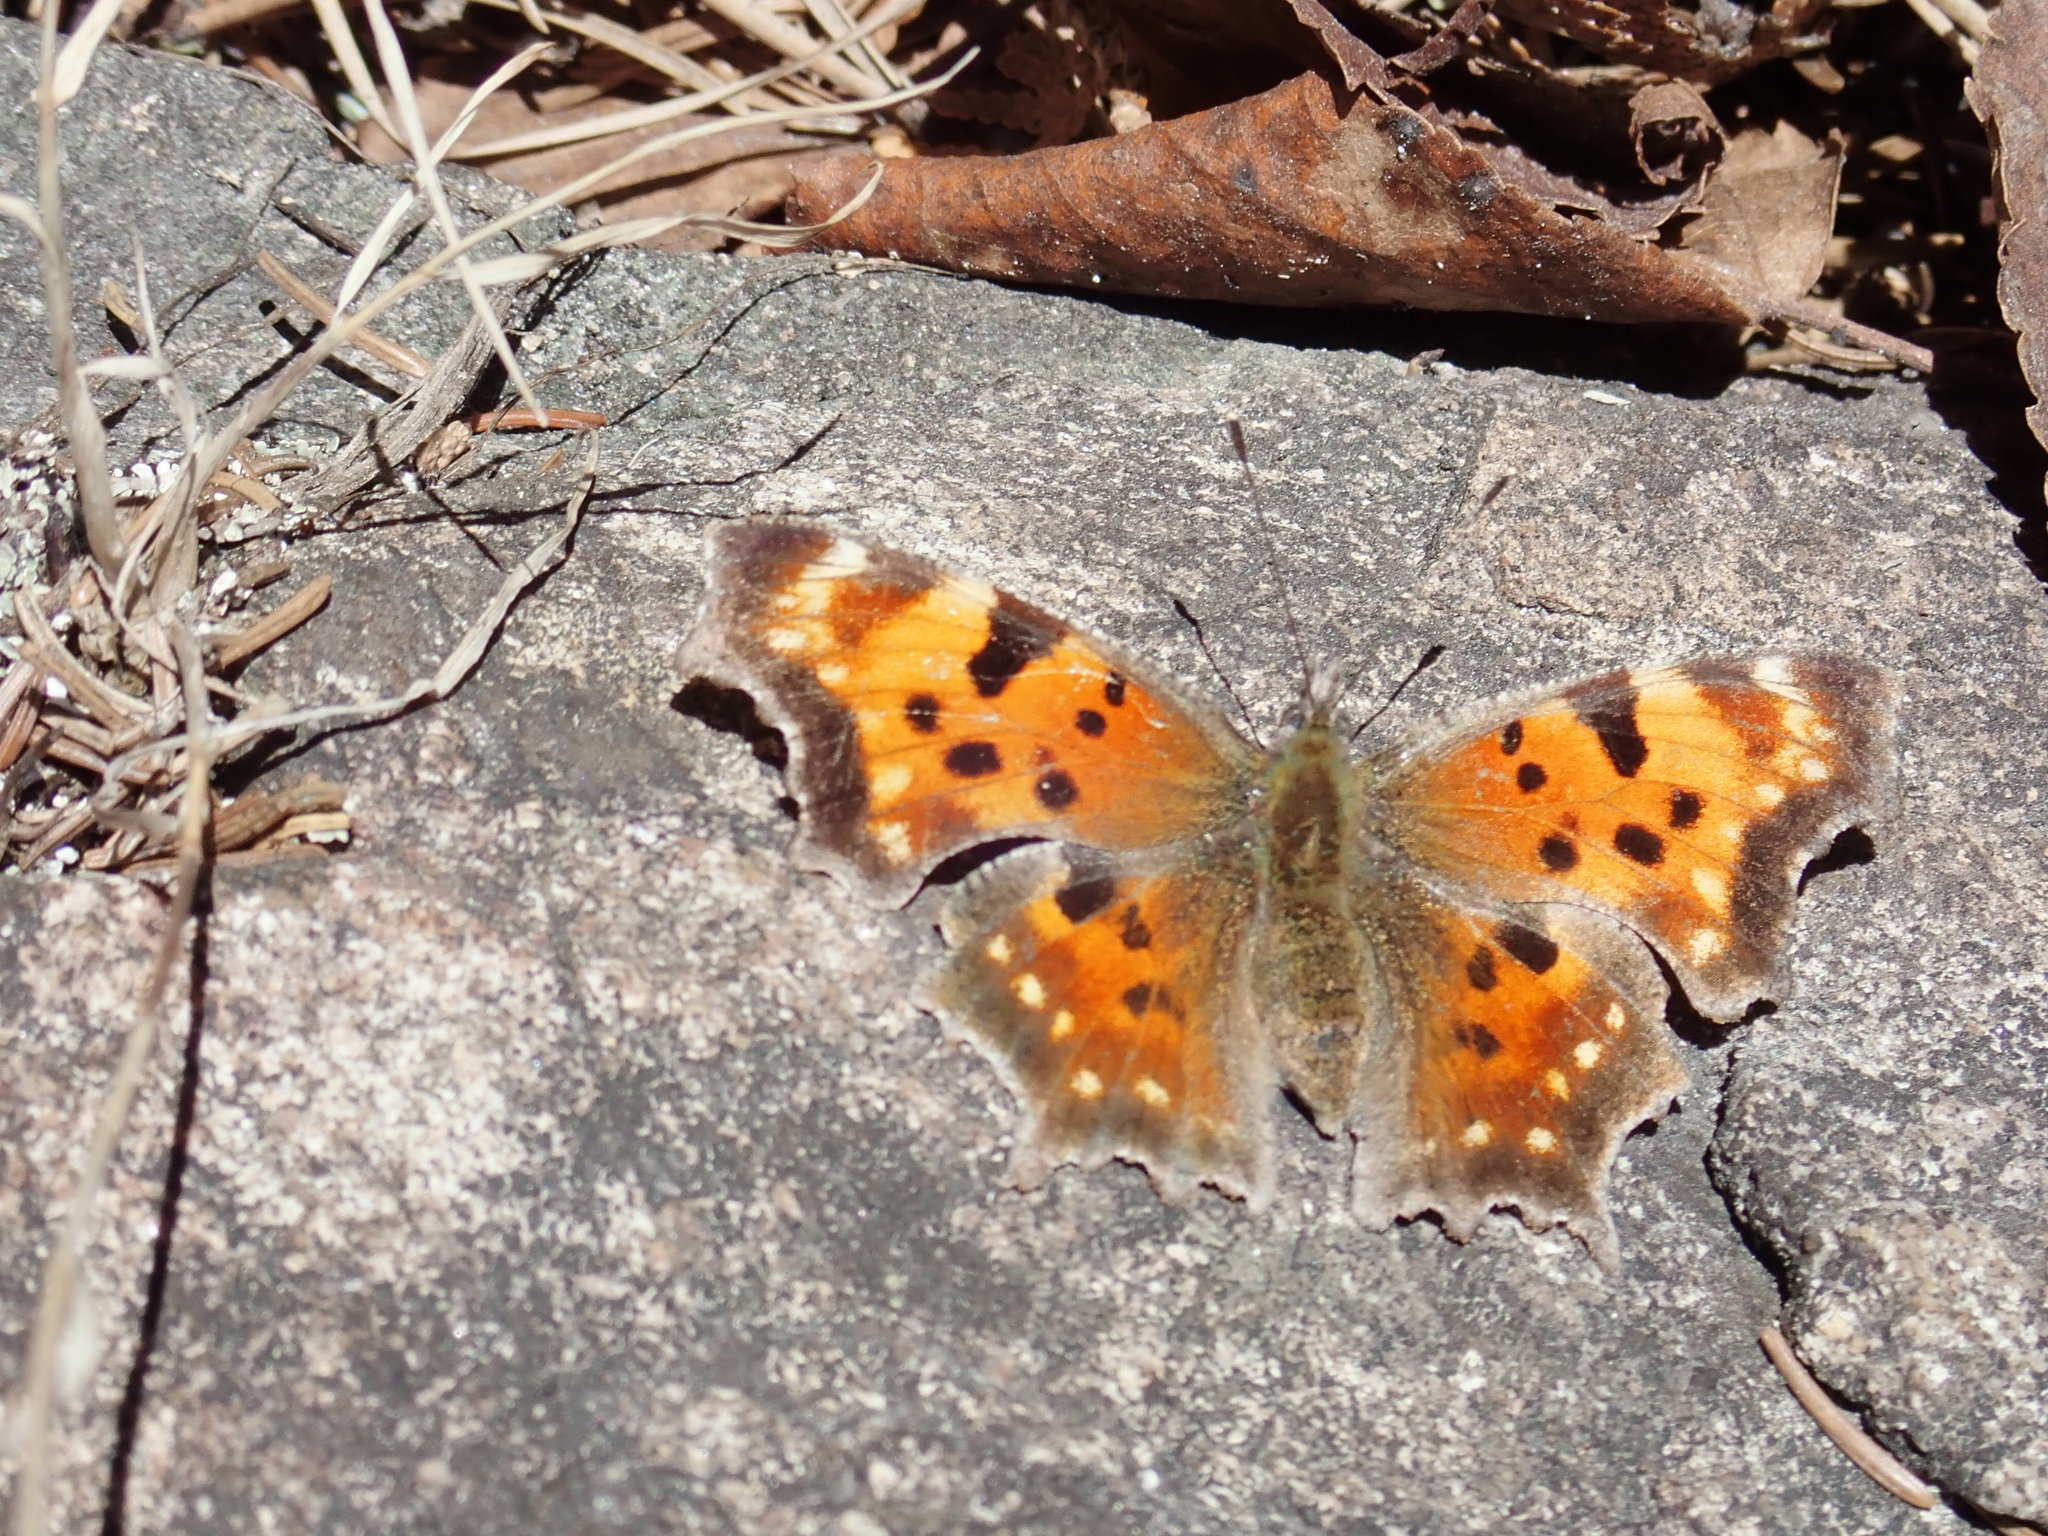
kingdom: Animalia
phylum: Arthropoda
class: Insecta
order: Lepidoptera
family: Nymphalidae
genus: Polygonia
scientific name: Polygonia faunus
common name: Green comma
